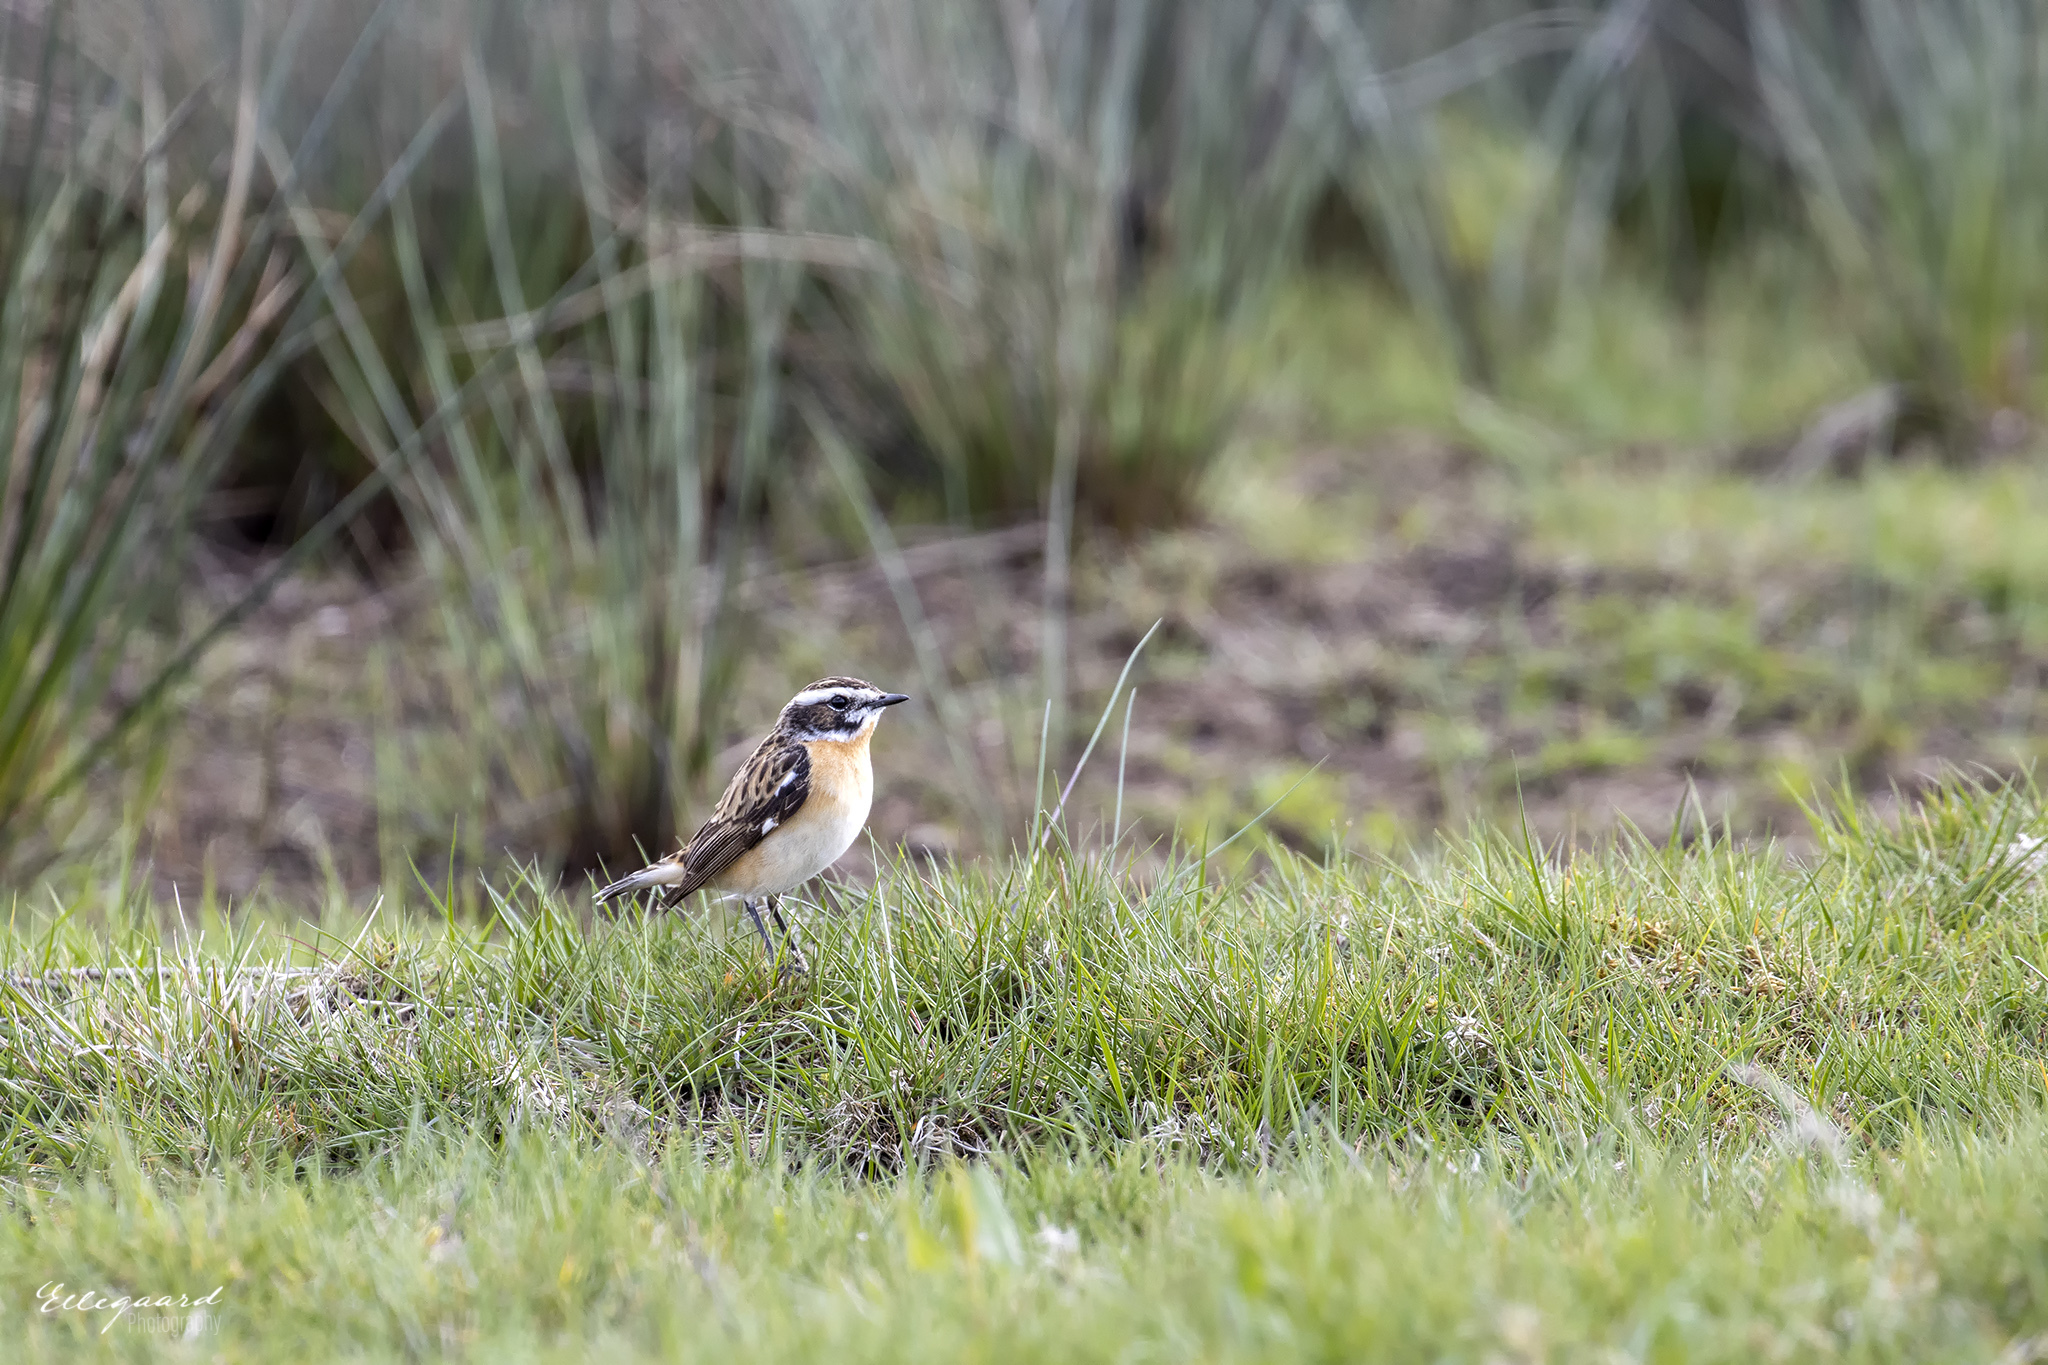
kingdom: Animalia
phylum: Chordata
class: Aves
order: Passeriformes
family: Muscicapidae
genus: Saxicola
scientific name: Saxicola rubetra
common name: Whinchat
